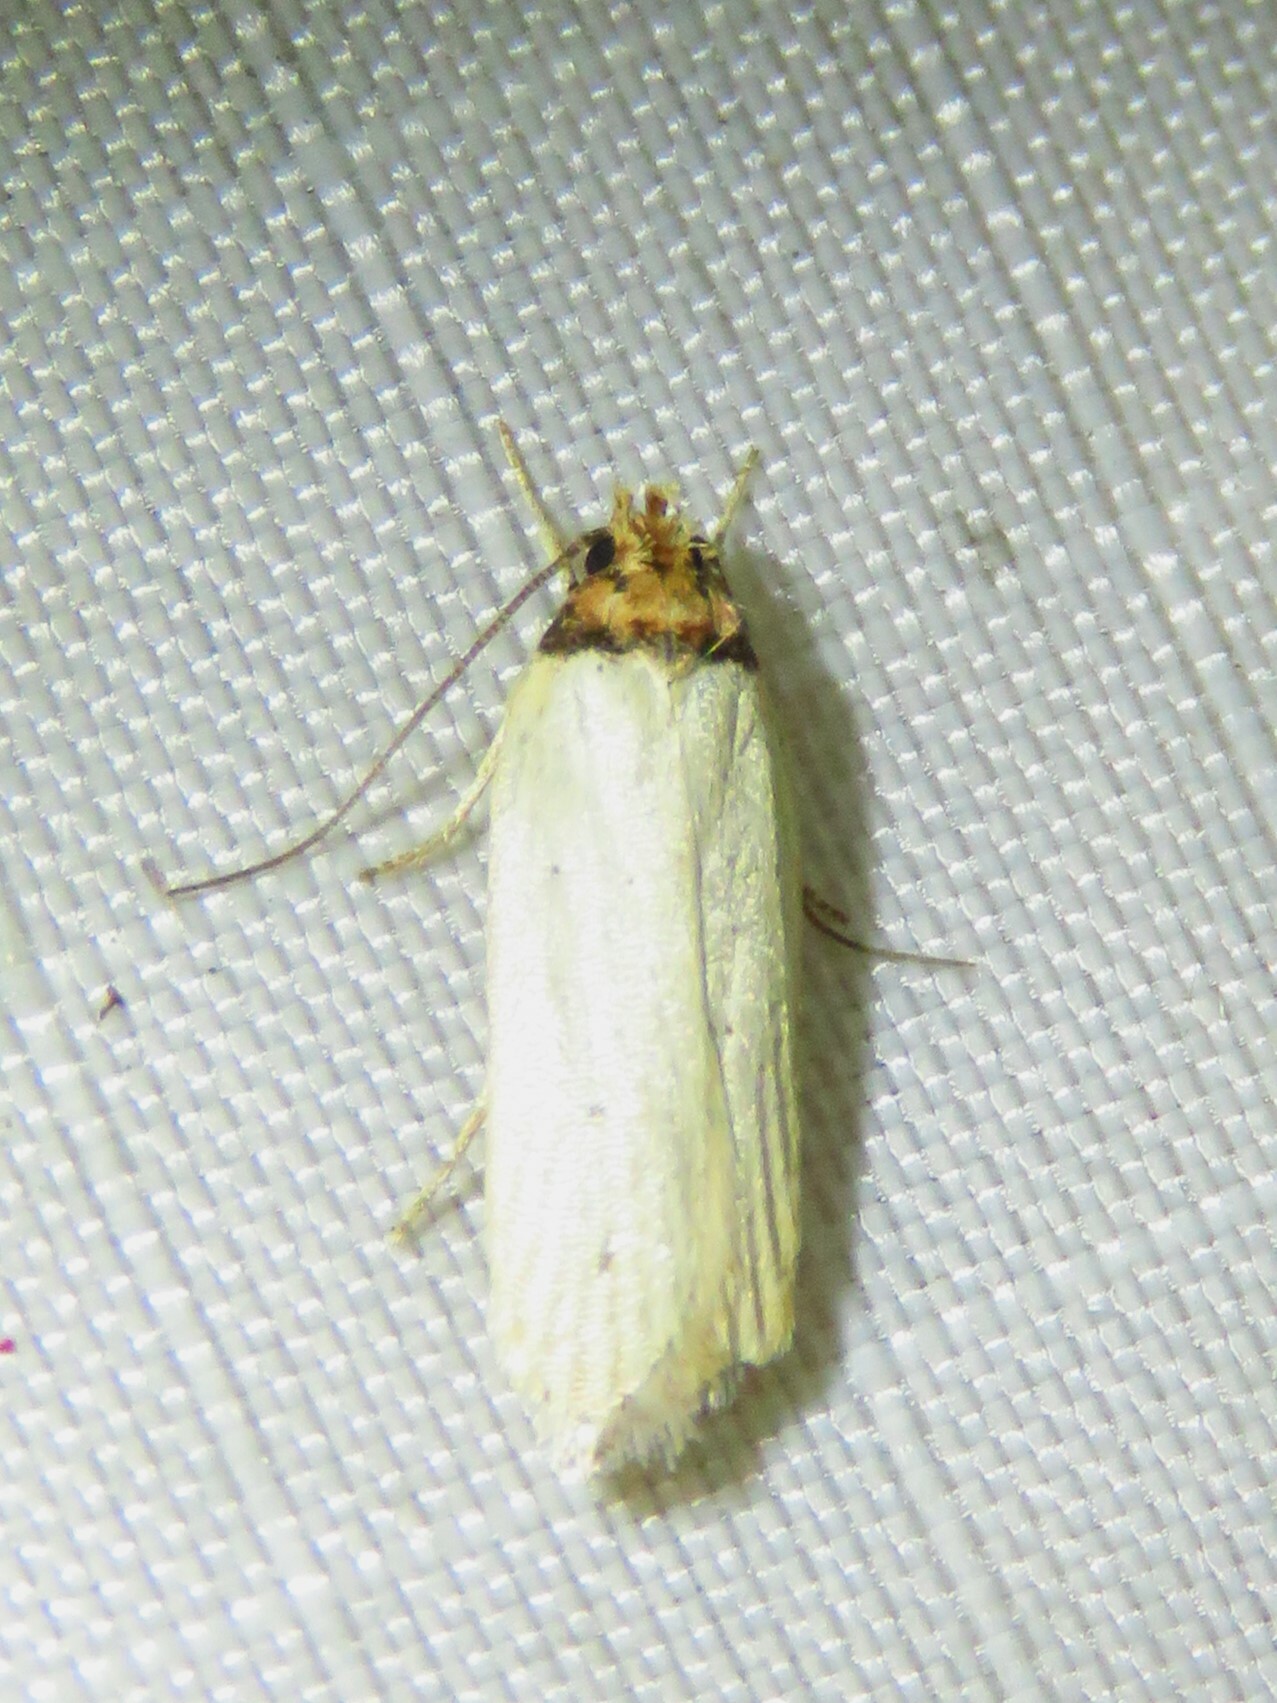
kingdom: Animalia
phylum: Arthropoda
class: Insecta
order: Lepidoptera
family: Depressariidae
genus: Exaeretia
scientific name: Exaeretia gracilis
